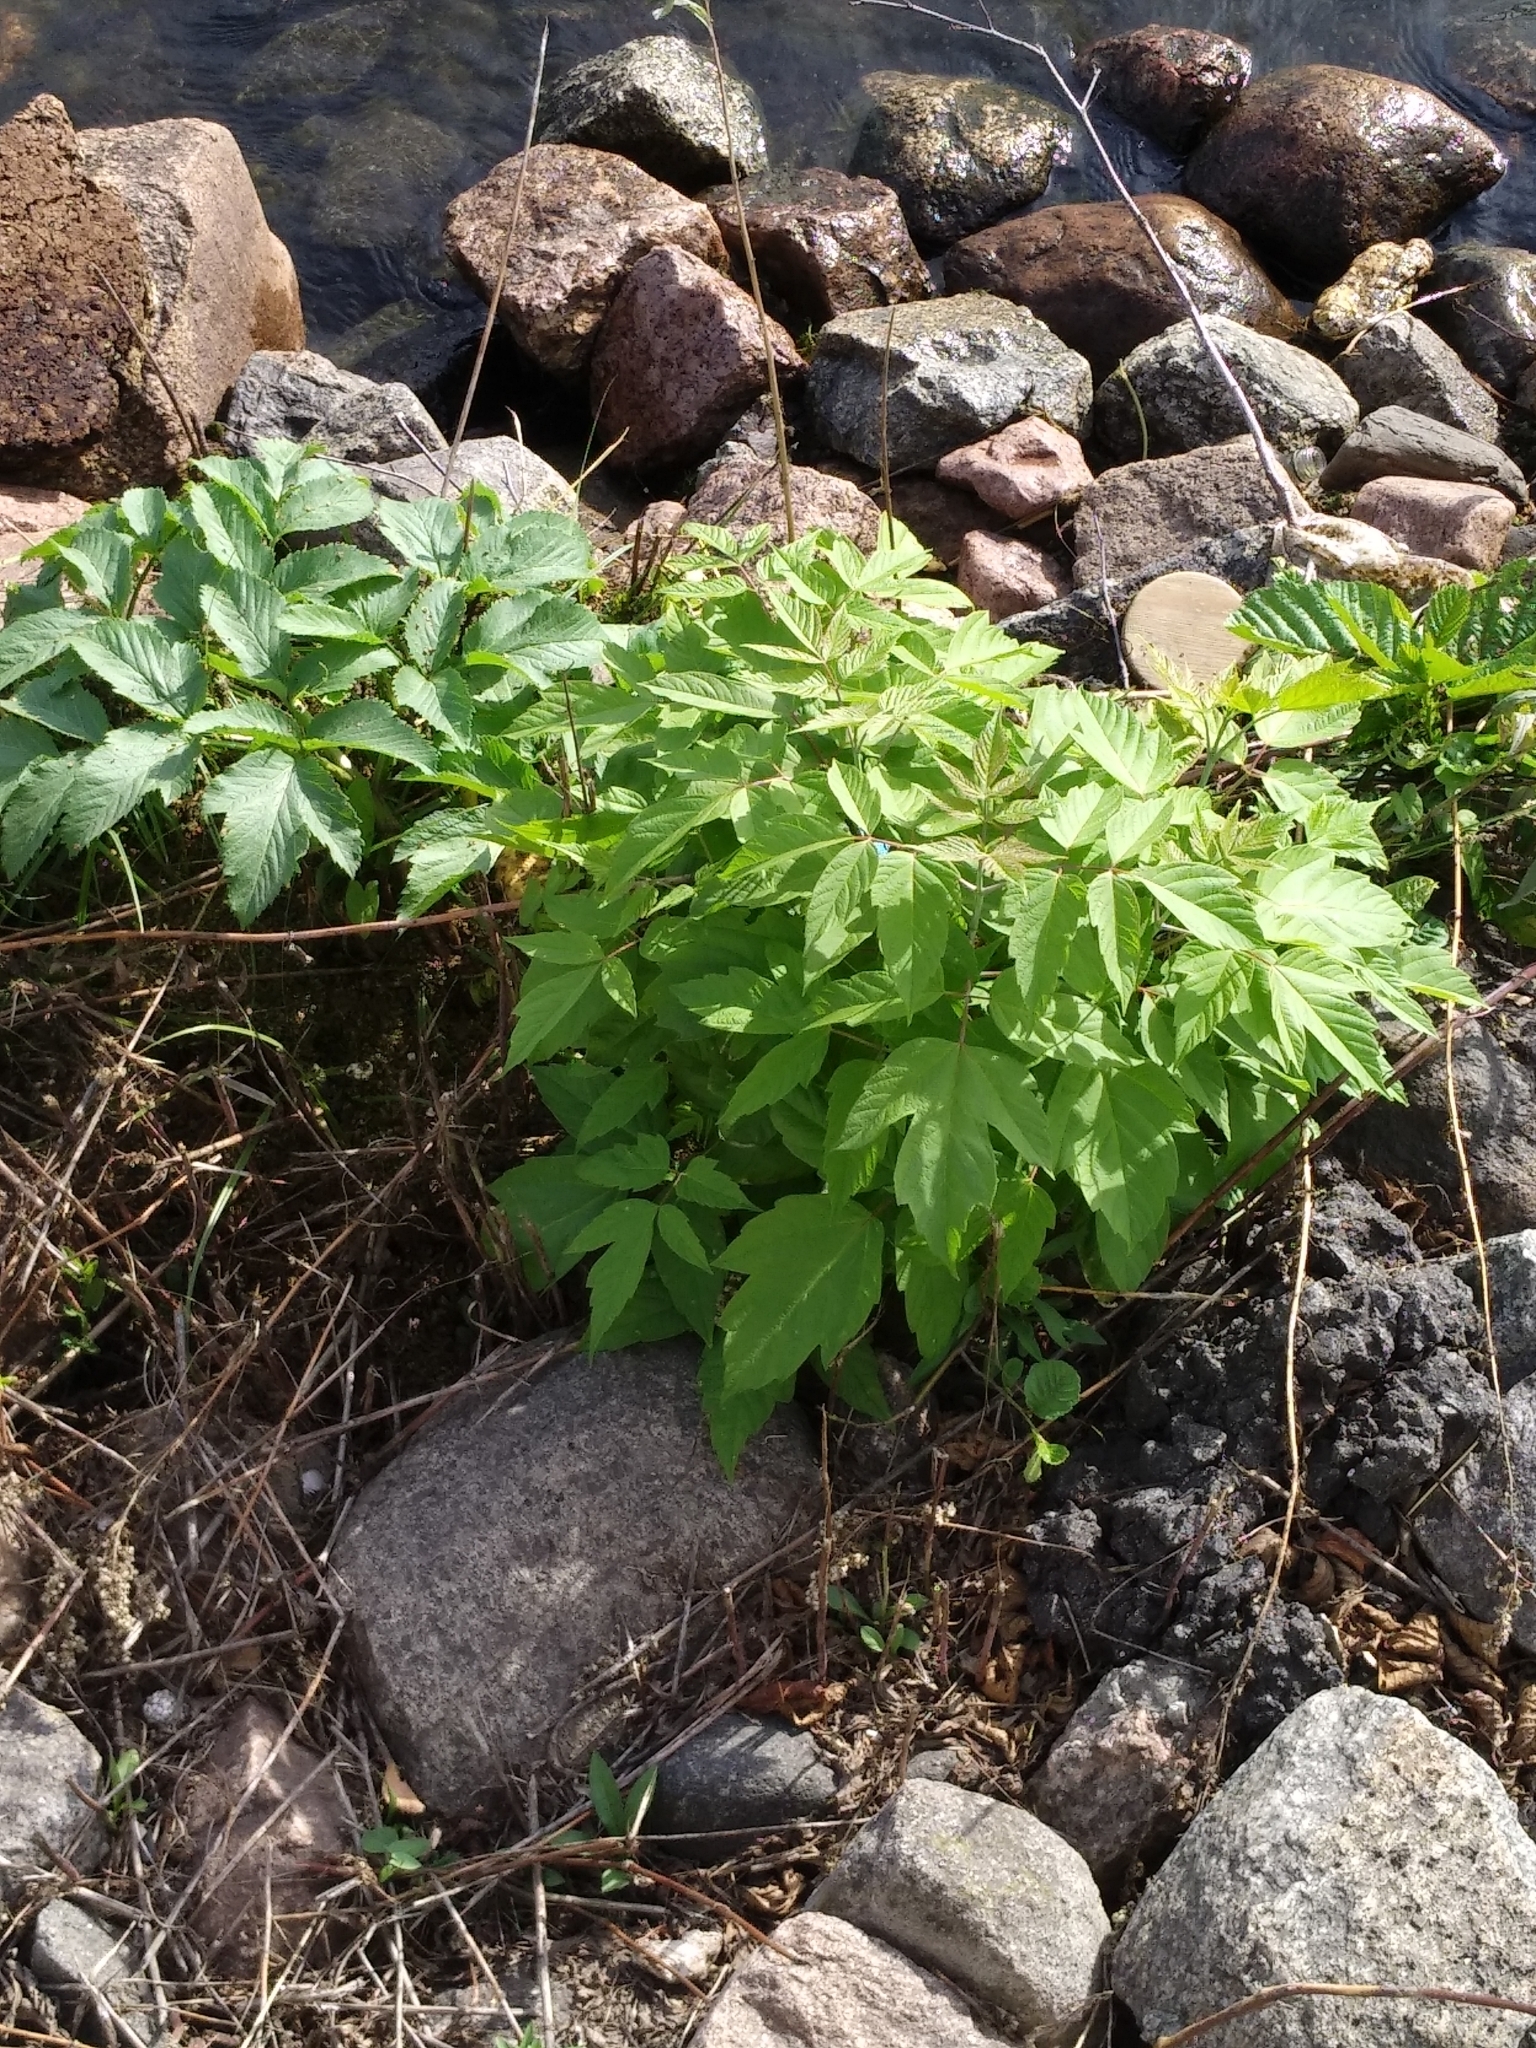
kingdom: Plantae
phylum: Tracheophyta
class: Magnoliopsida
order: Sapindales
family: Sapindaceae
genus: Acer
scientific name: Acer negundo
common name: Ashleaf maple
